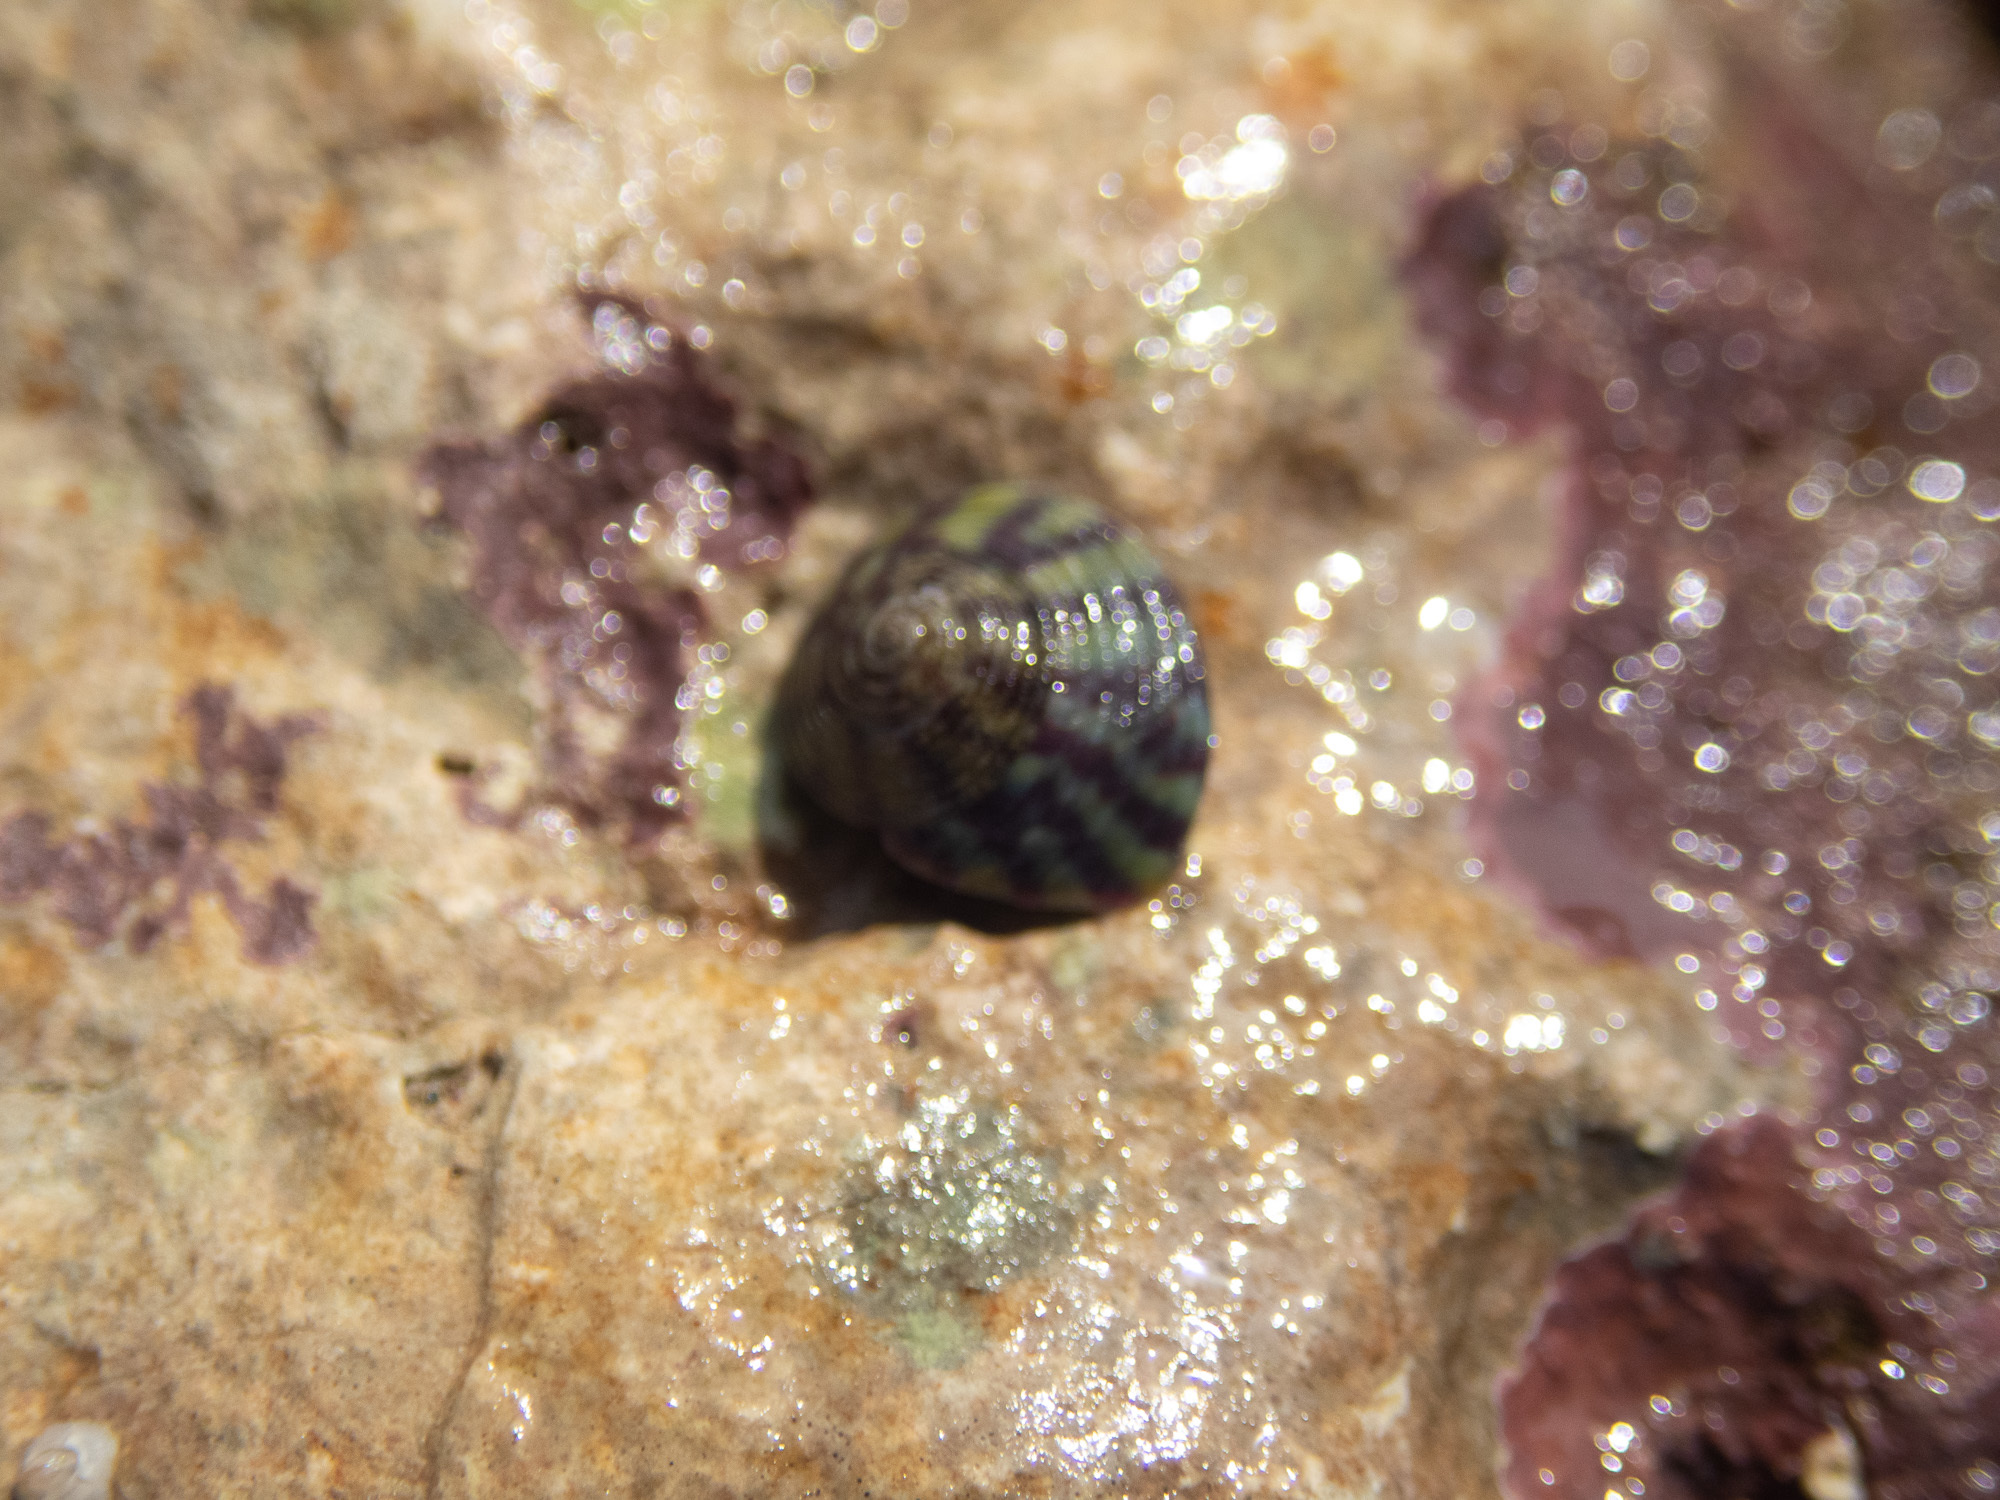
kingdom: Animalia
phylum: Mollusca
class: Gastropoda
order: Trochida
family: Trochidae
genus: Steromphala
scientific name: Steromphala umbilicalis
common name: Flat top shell
